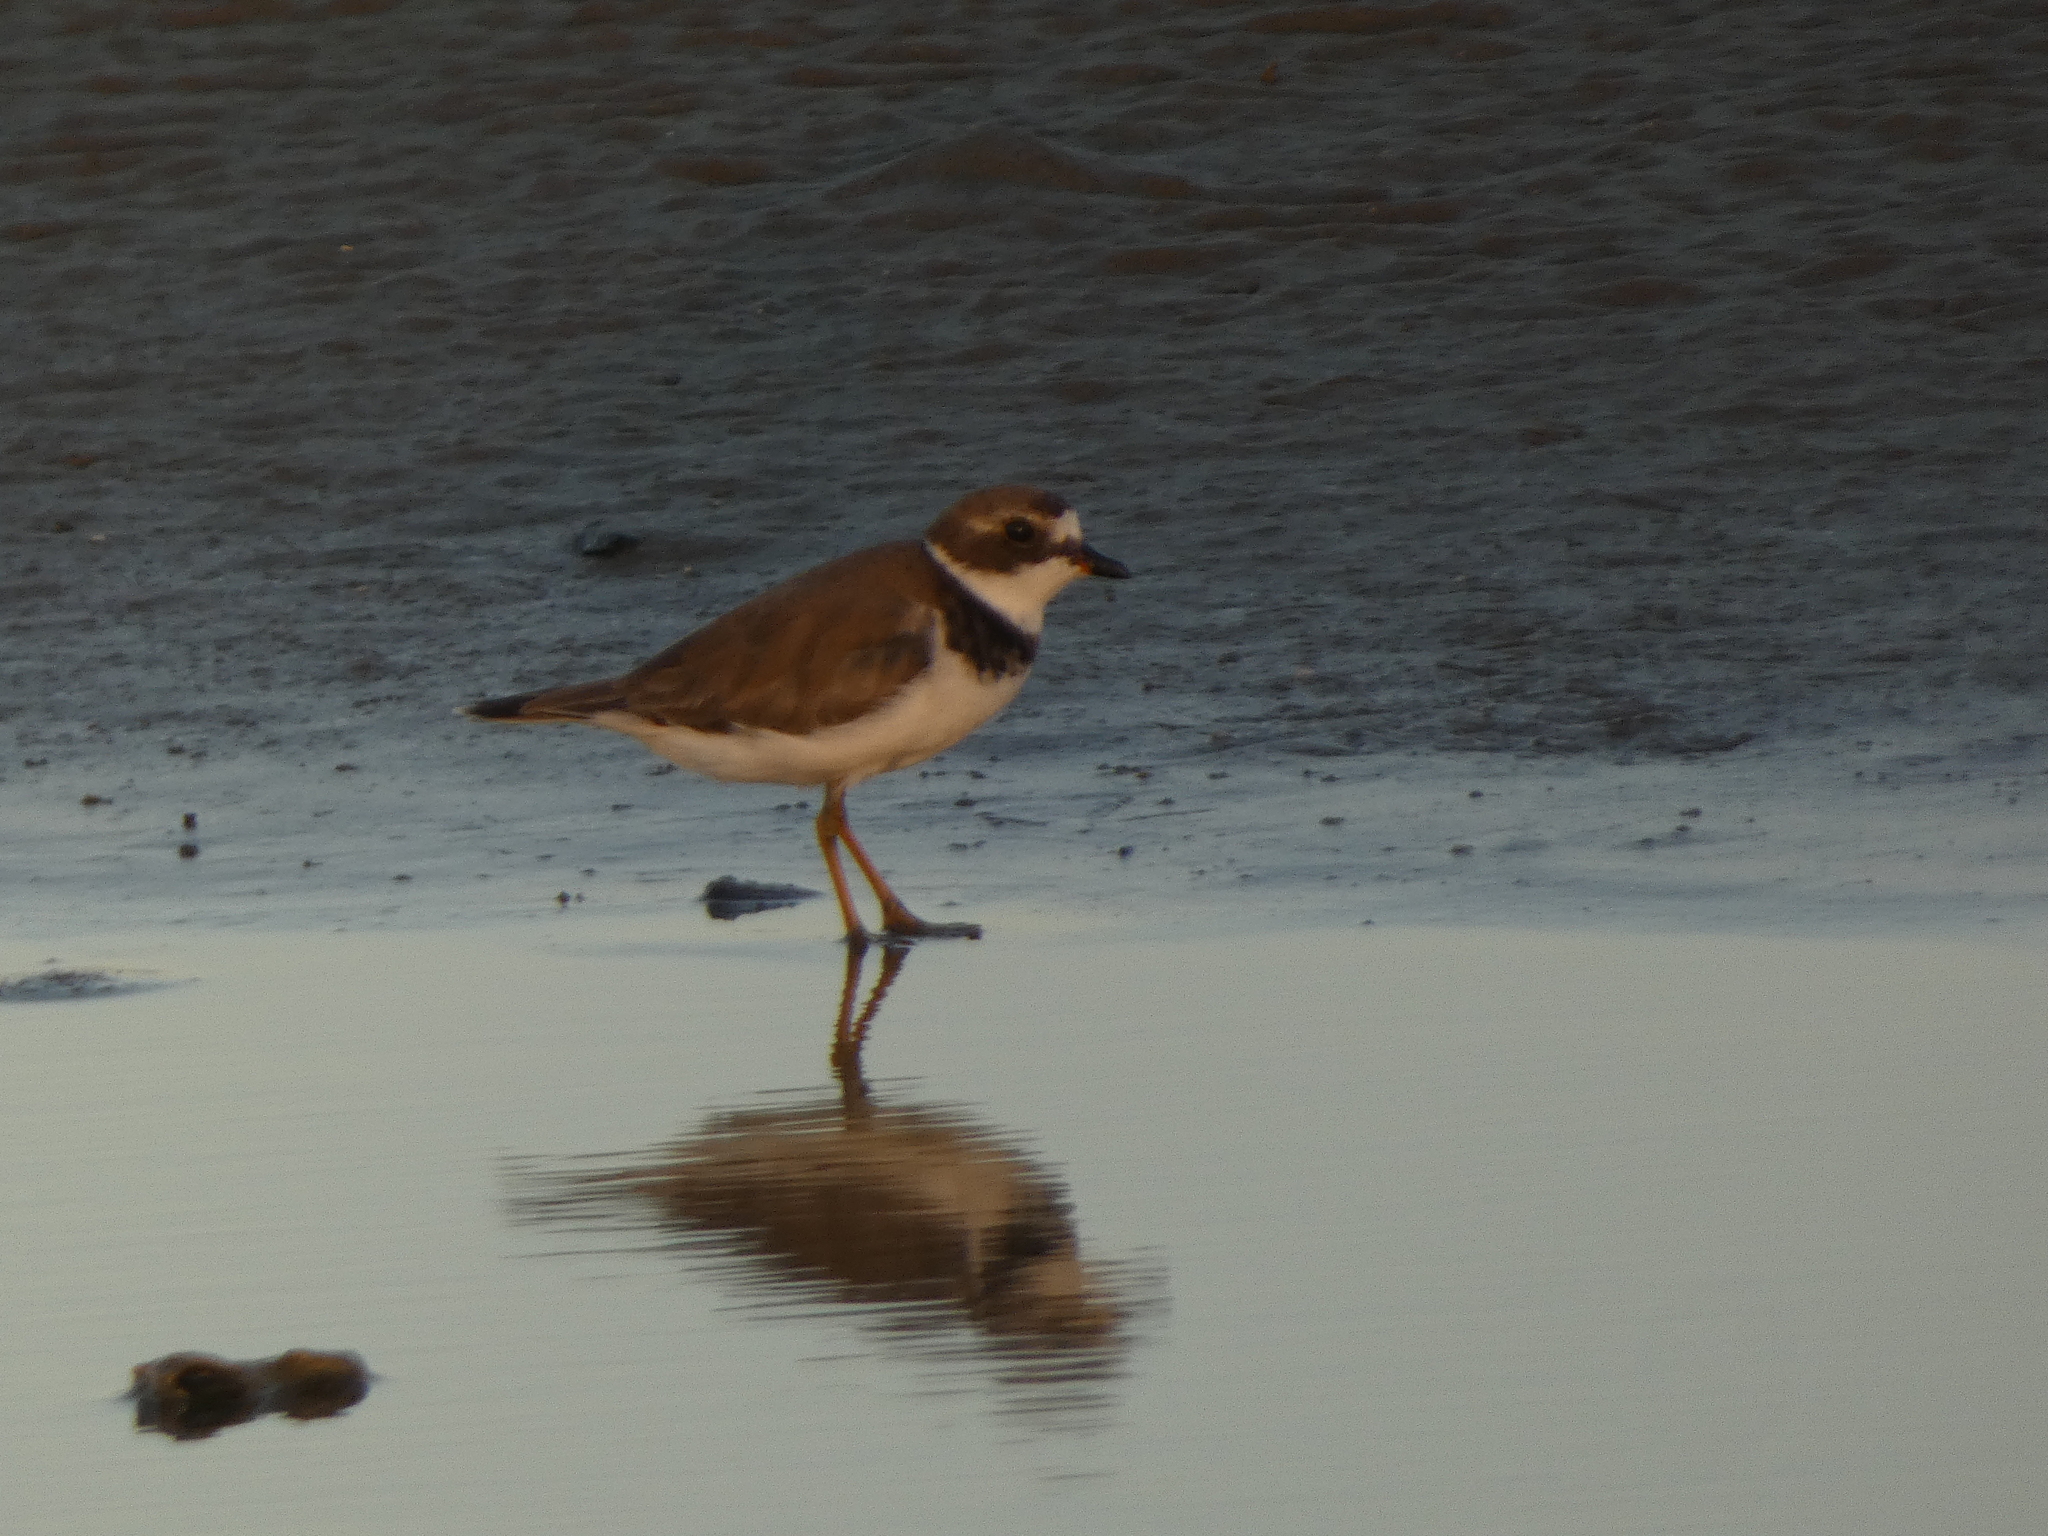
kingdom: Animalia
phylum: Chordata
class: Aves
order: Charadriiformes
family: Charadriidae
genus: Charadrius
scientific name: Charadrius semipalmatus
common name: Semipalmated plover
